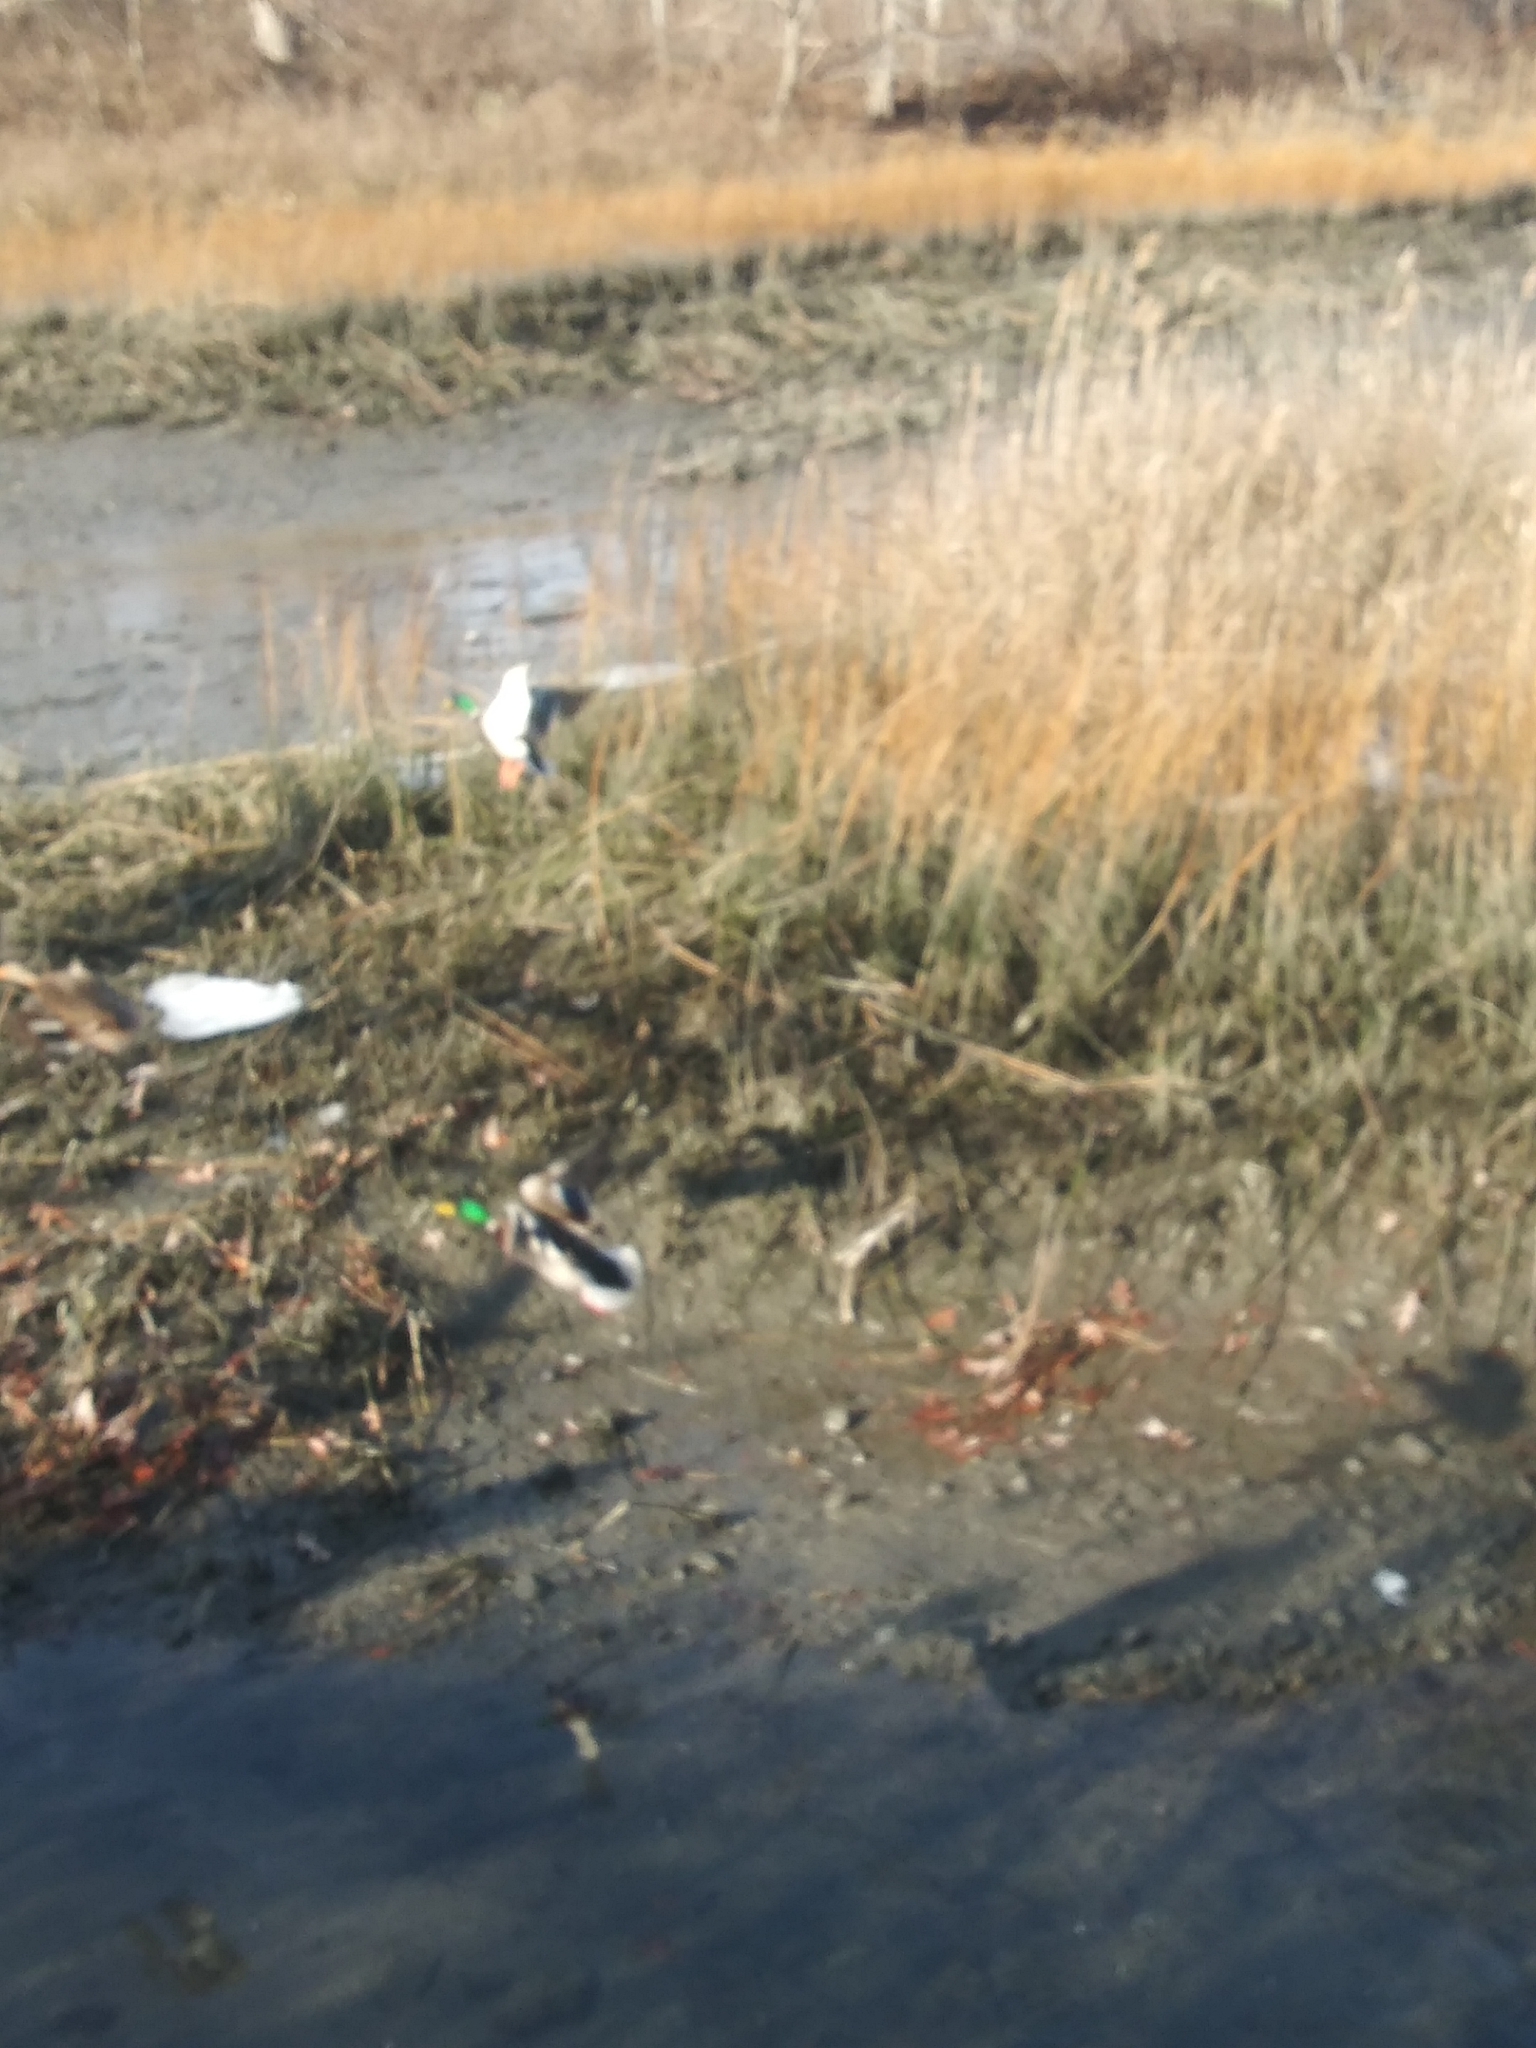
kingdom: Animalia
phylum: Chordata
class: Aves
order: Anseriformes
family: Anatidae
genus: Anas
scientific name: Anas platyrhynchos
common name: Mallard
